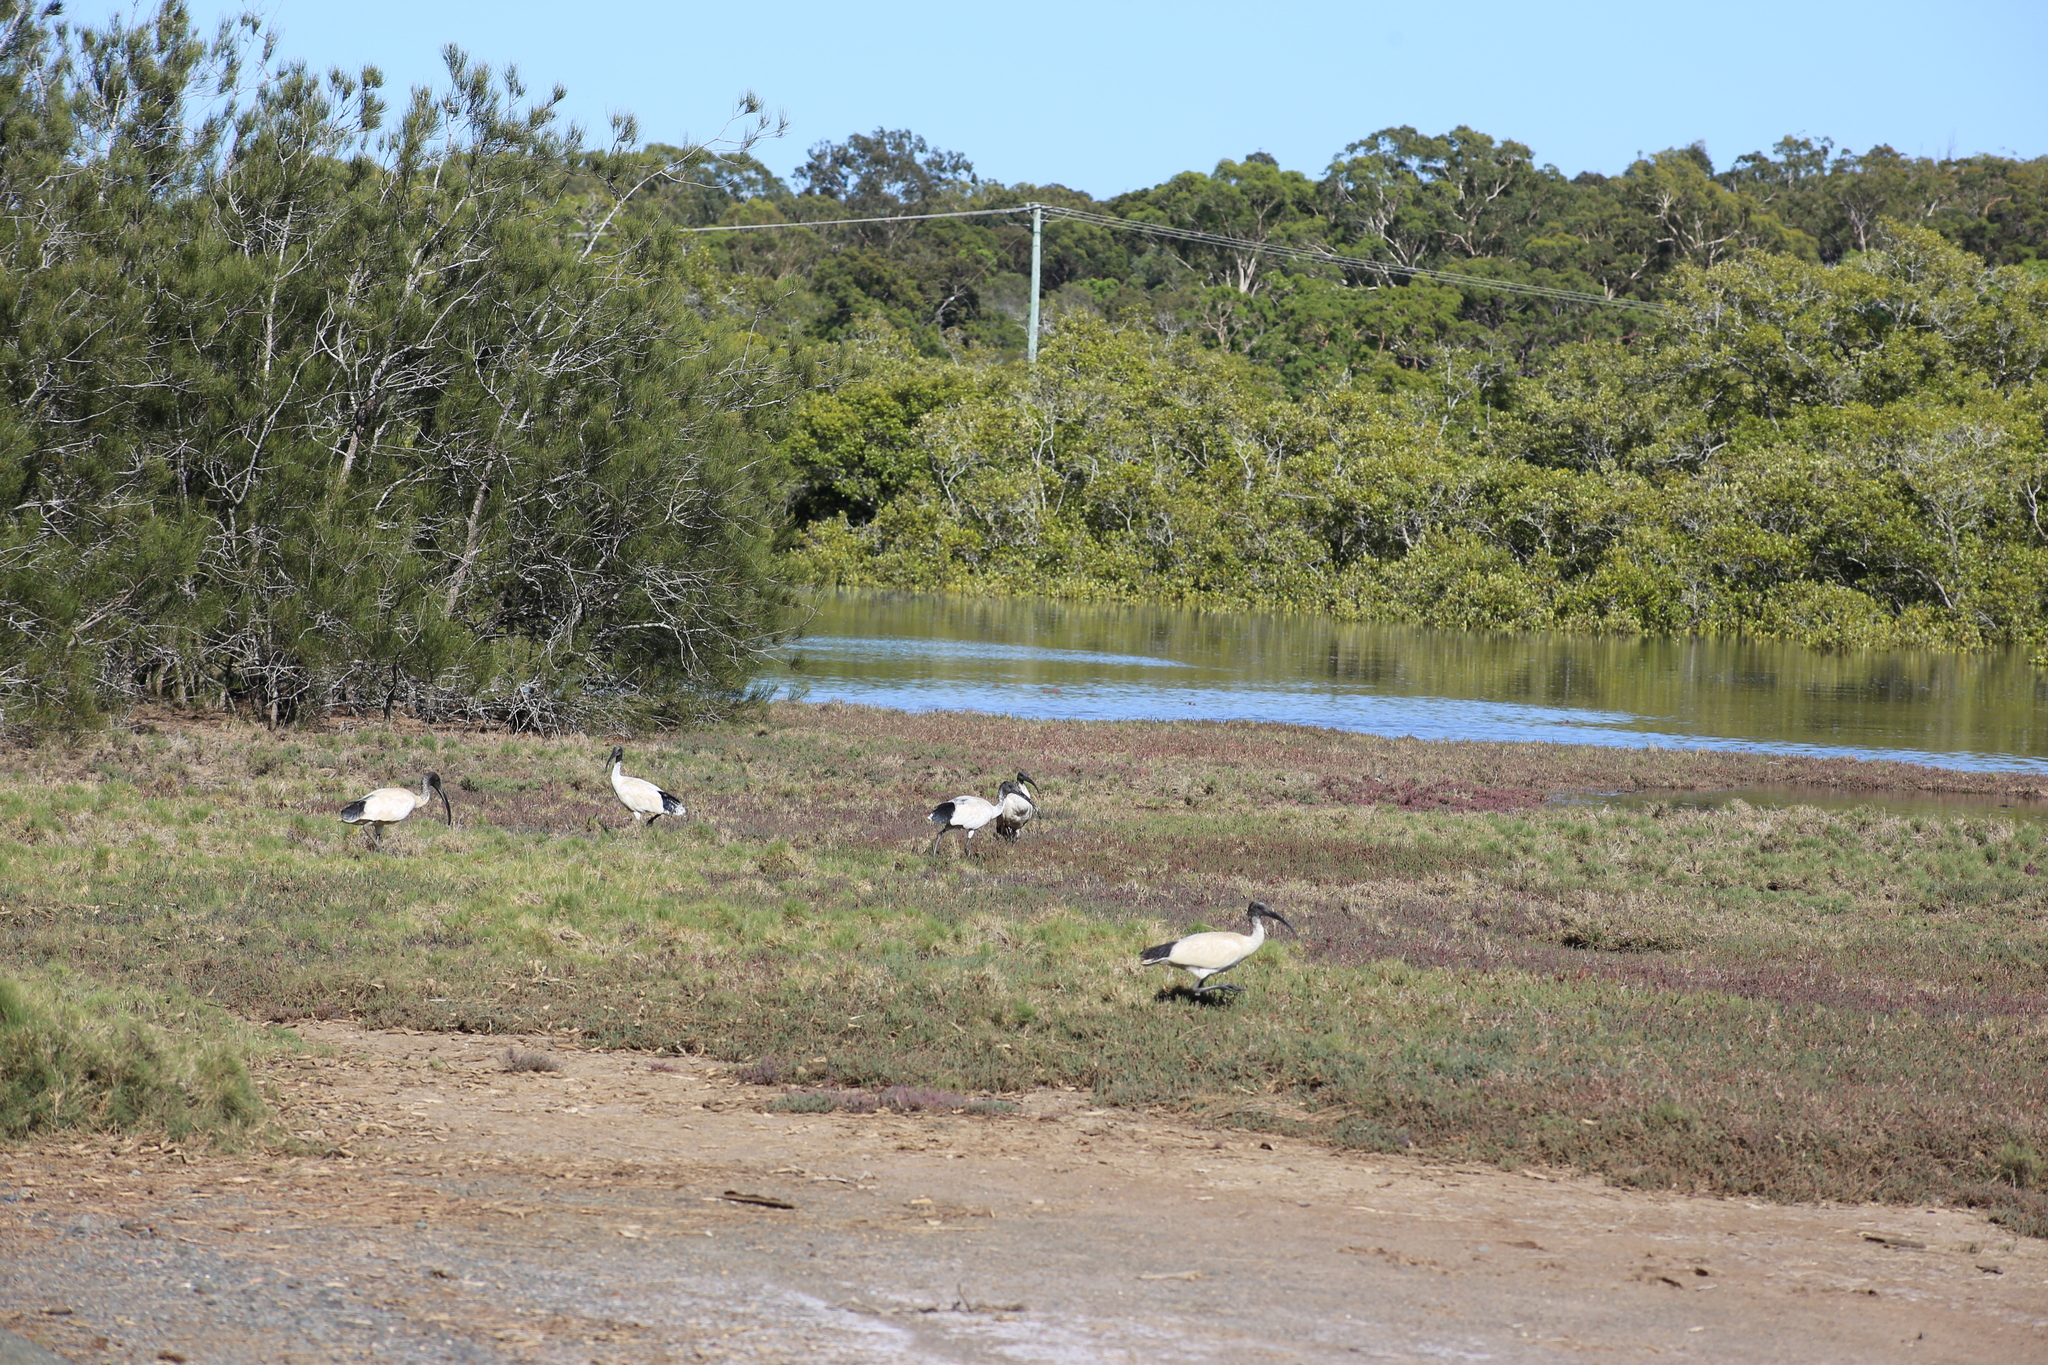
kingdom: Animalia
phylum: Chordata
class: Aves
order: Pelecaniformes
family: Threskiornithidae
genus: Threskiornis
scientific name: Threskiornis molucca
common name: Australian white ibis
